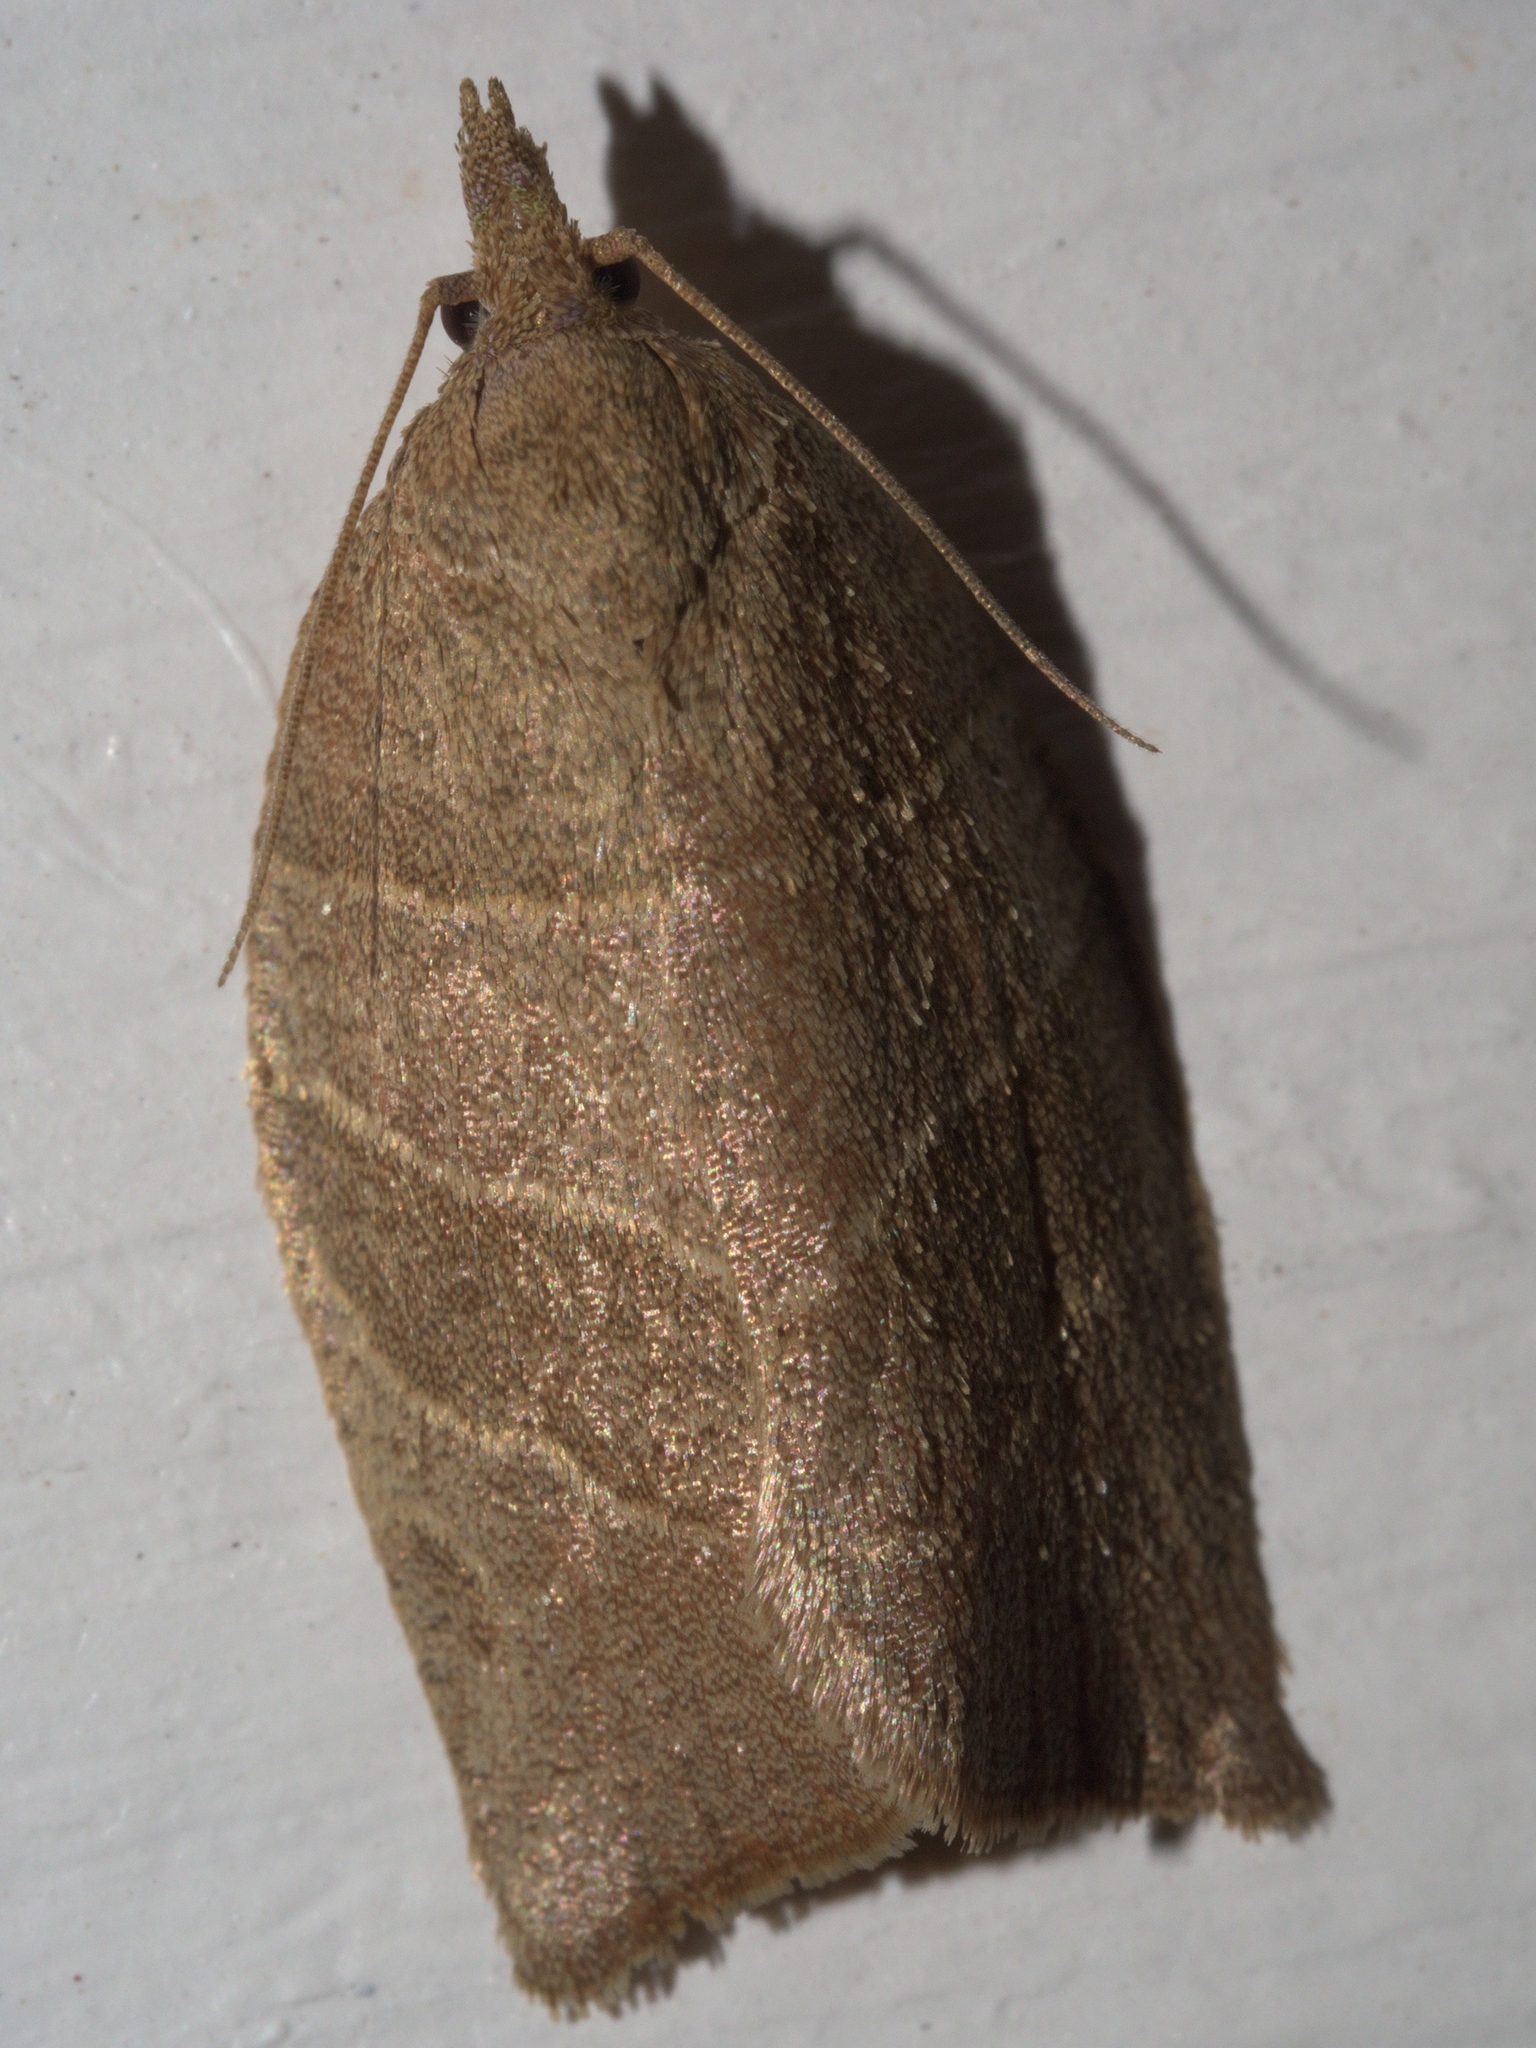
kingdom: Animalia
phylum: Arthropoda
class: Insecta
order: Lepidoptera
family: Tortricidae
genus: Pandemis
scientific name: Pandemis limitata
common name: Three-lined leafroller moth
